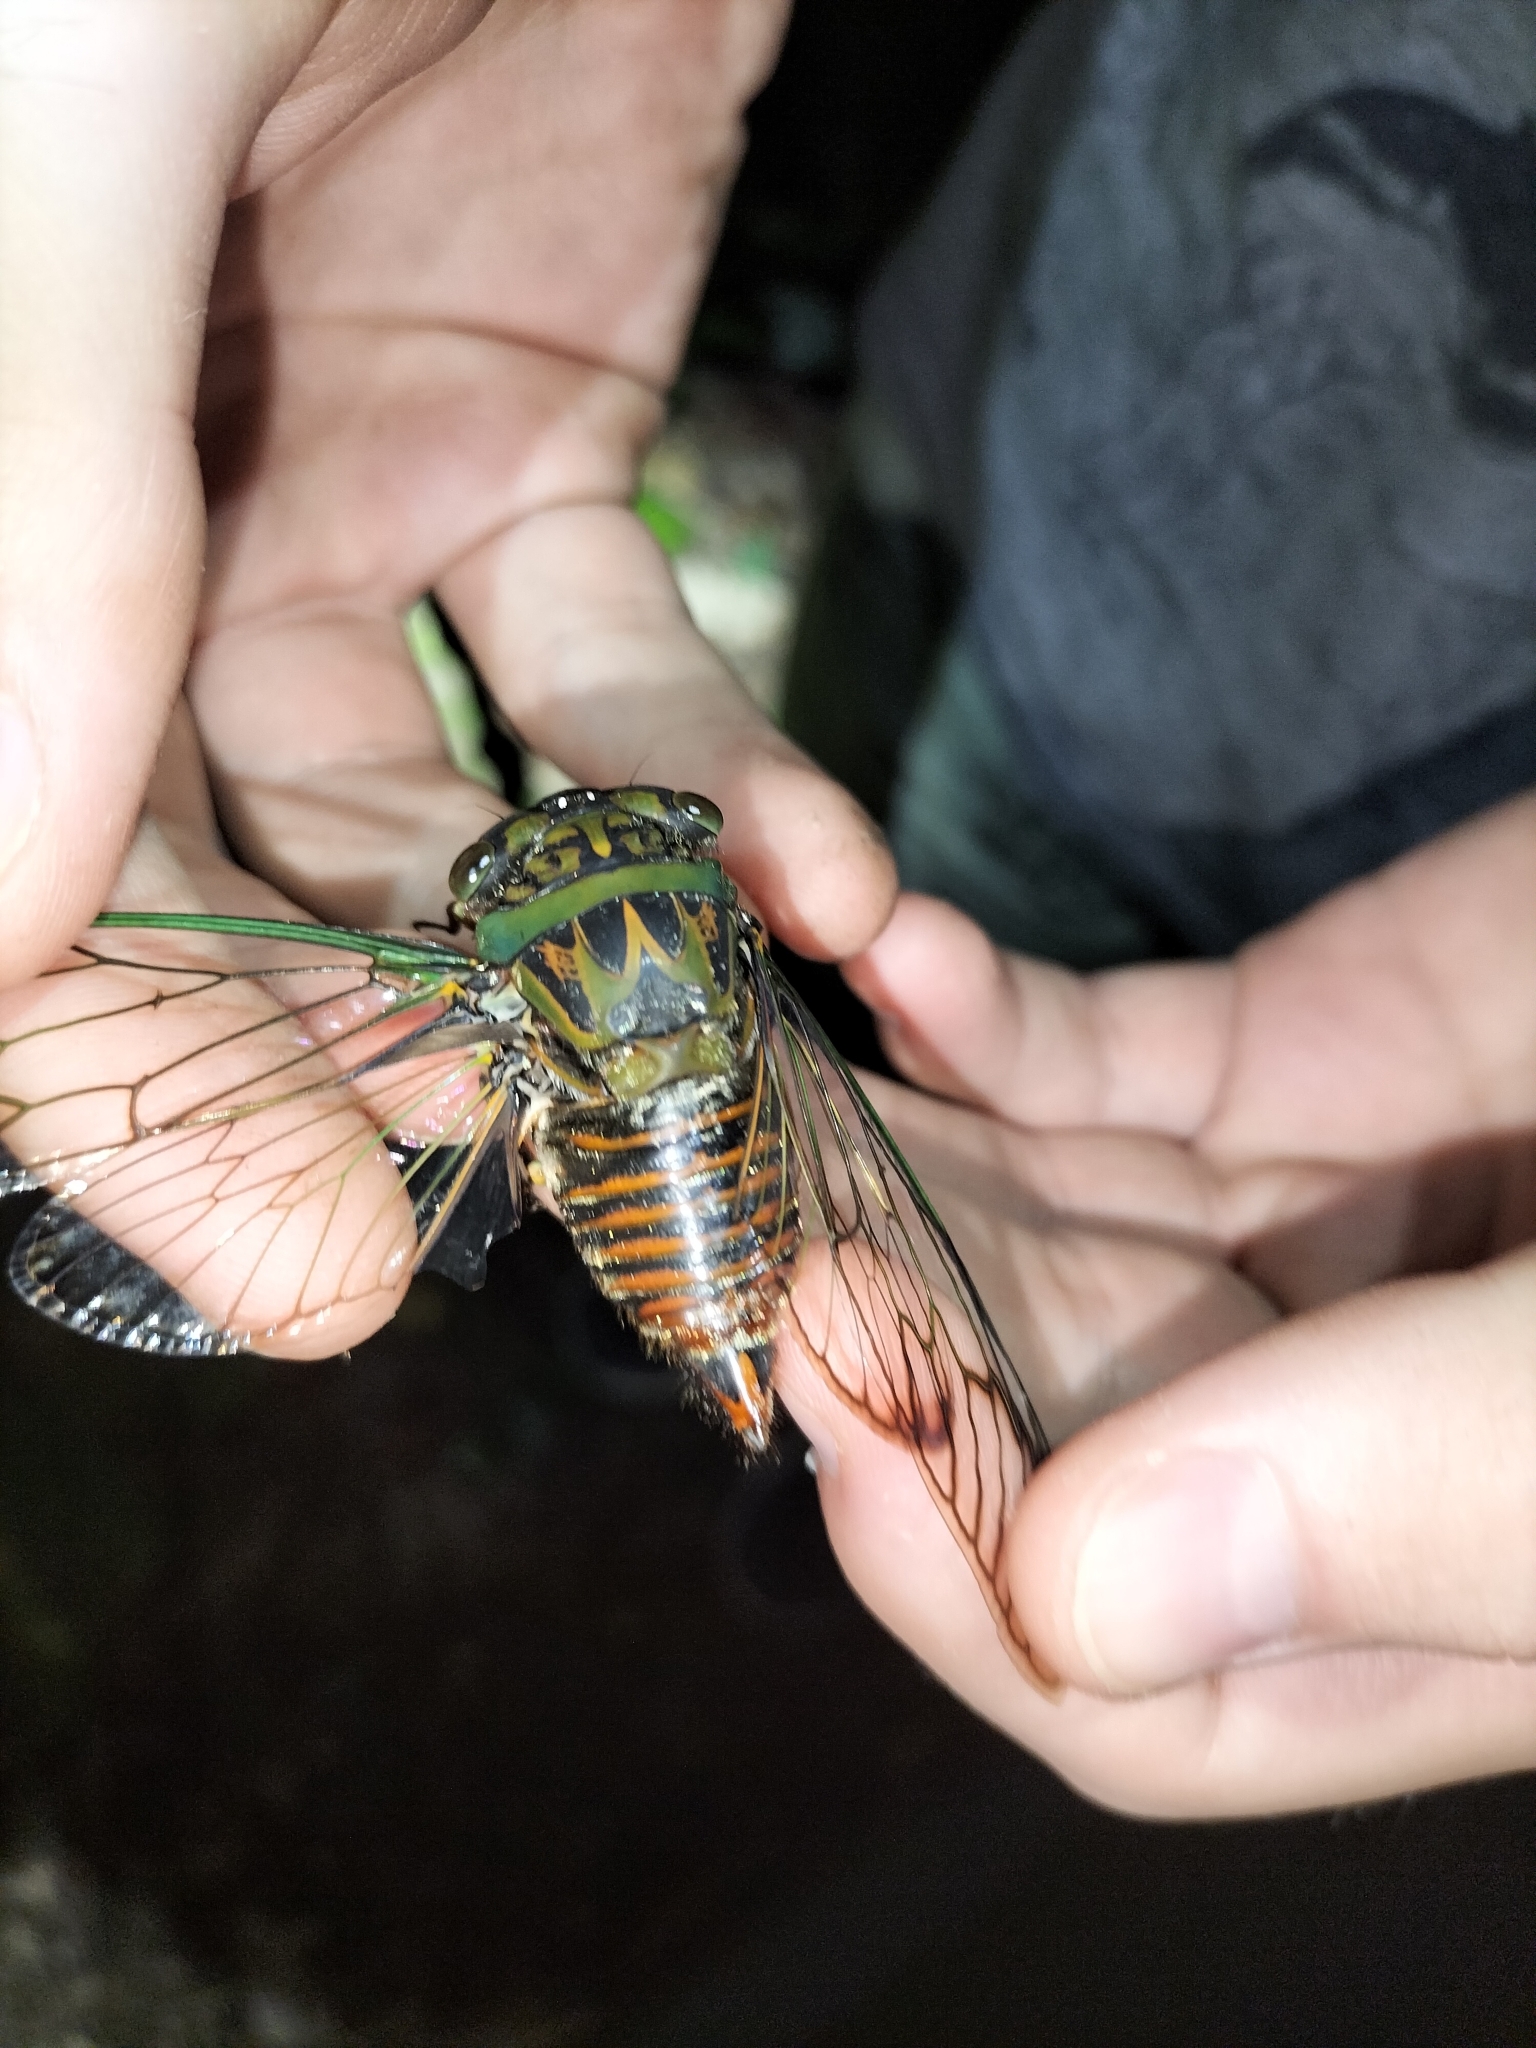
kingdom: Animalia
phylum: Arthropoda
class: Insecta
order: Hemiptera
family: Cicadidae
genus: Psaltoda
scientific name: Psaltoda magnifica
